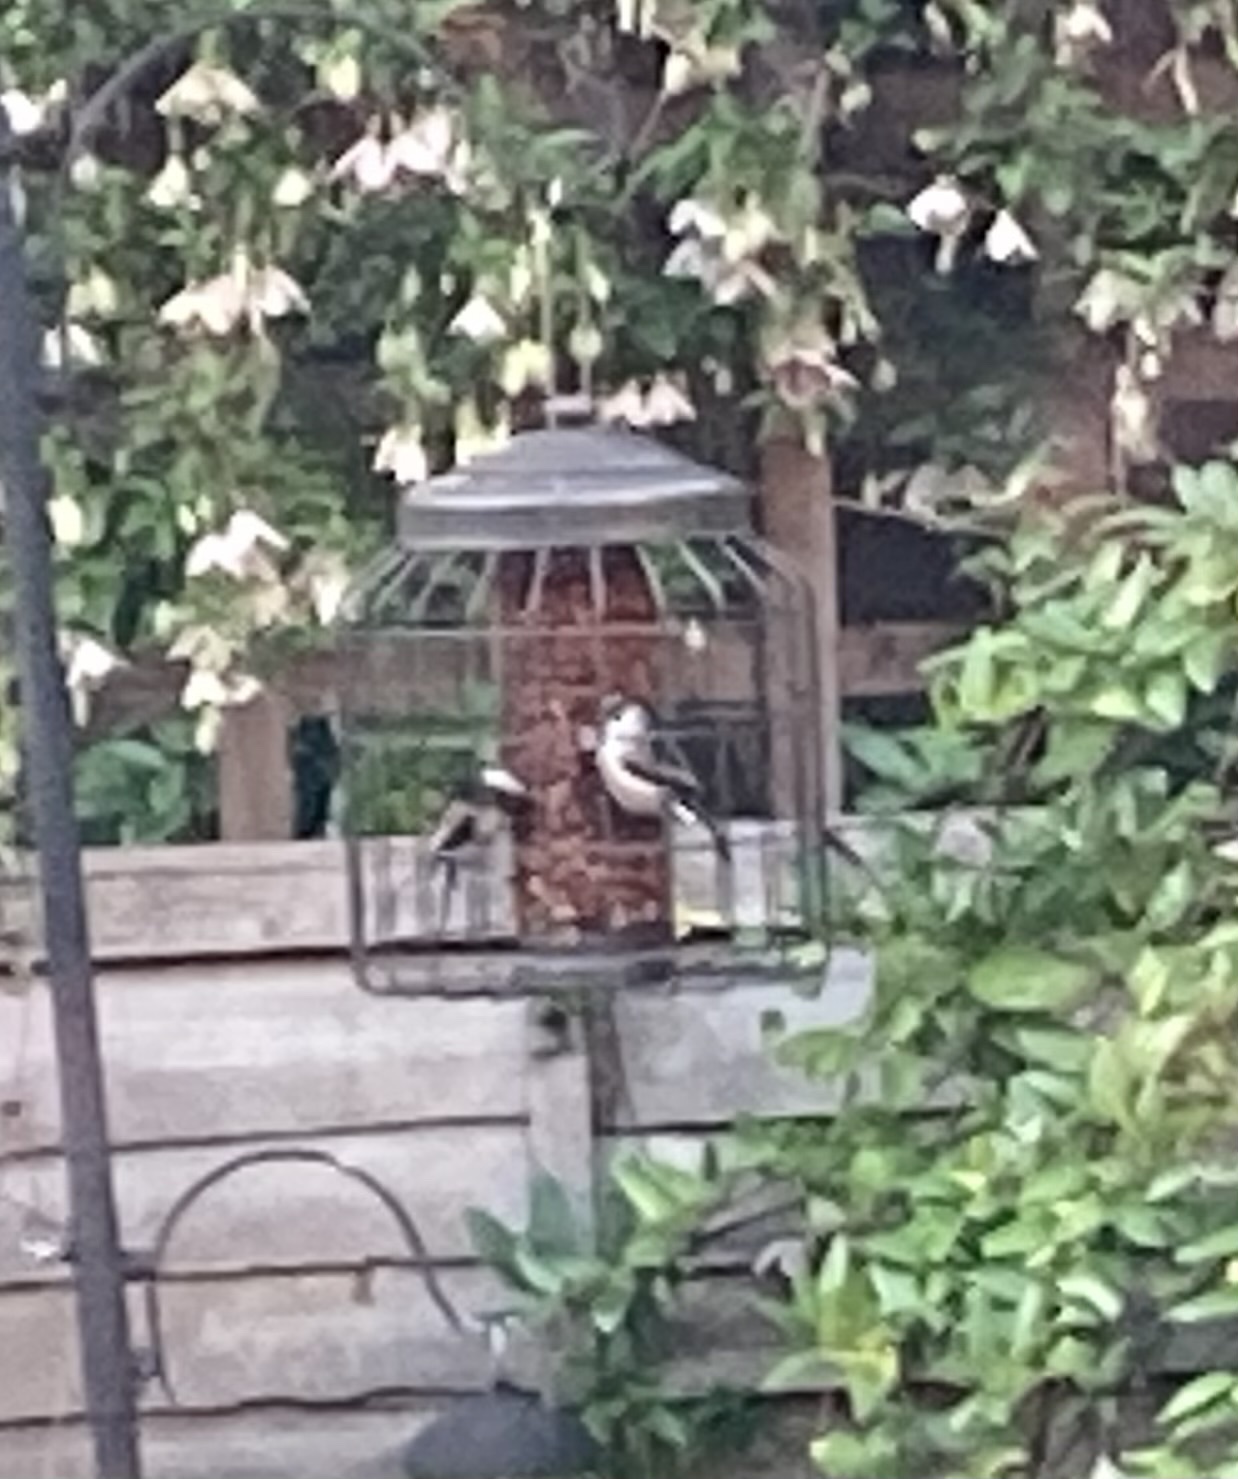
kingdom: Animalia
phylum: Chordata
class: Aves
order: Passeriformes
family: Aegithalidae
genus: Aegithalos
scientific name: Aegithalos caudatus
